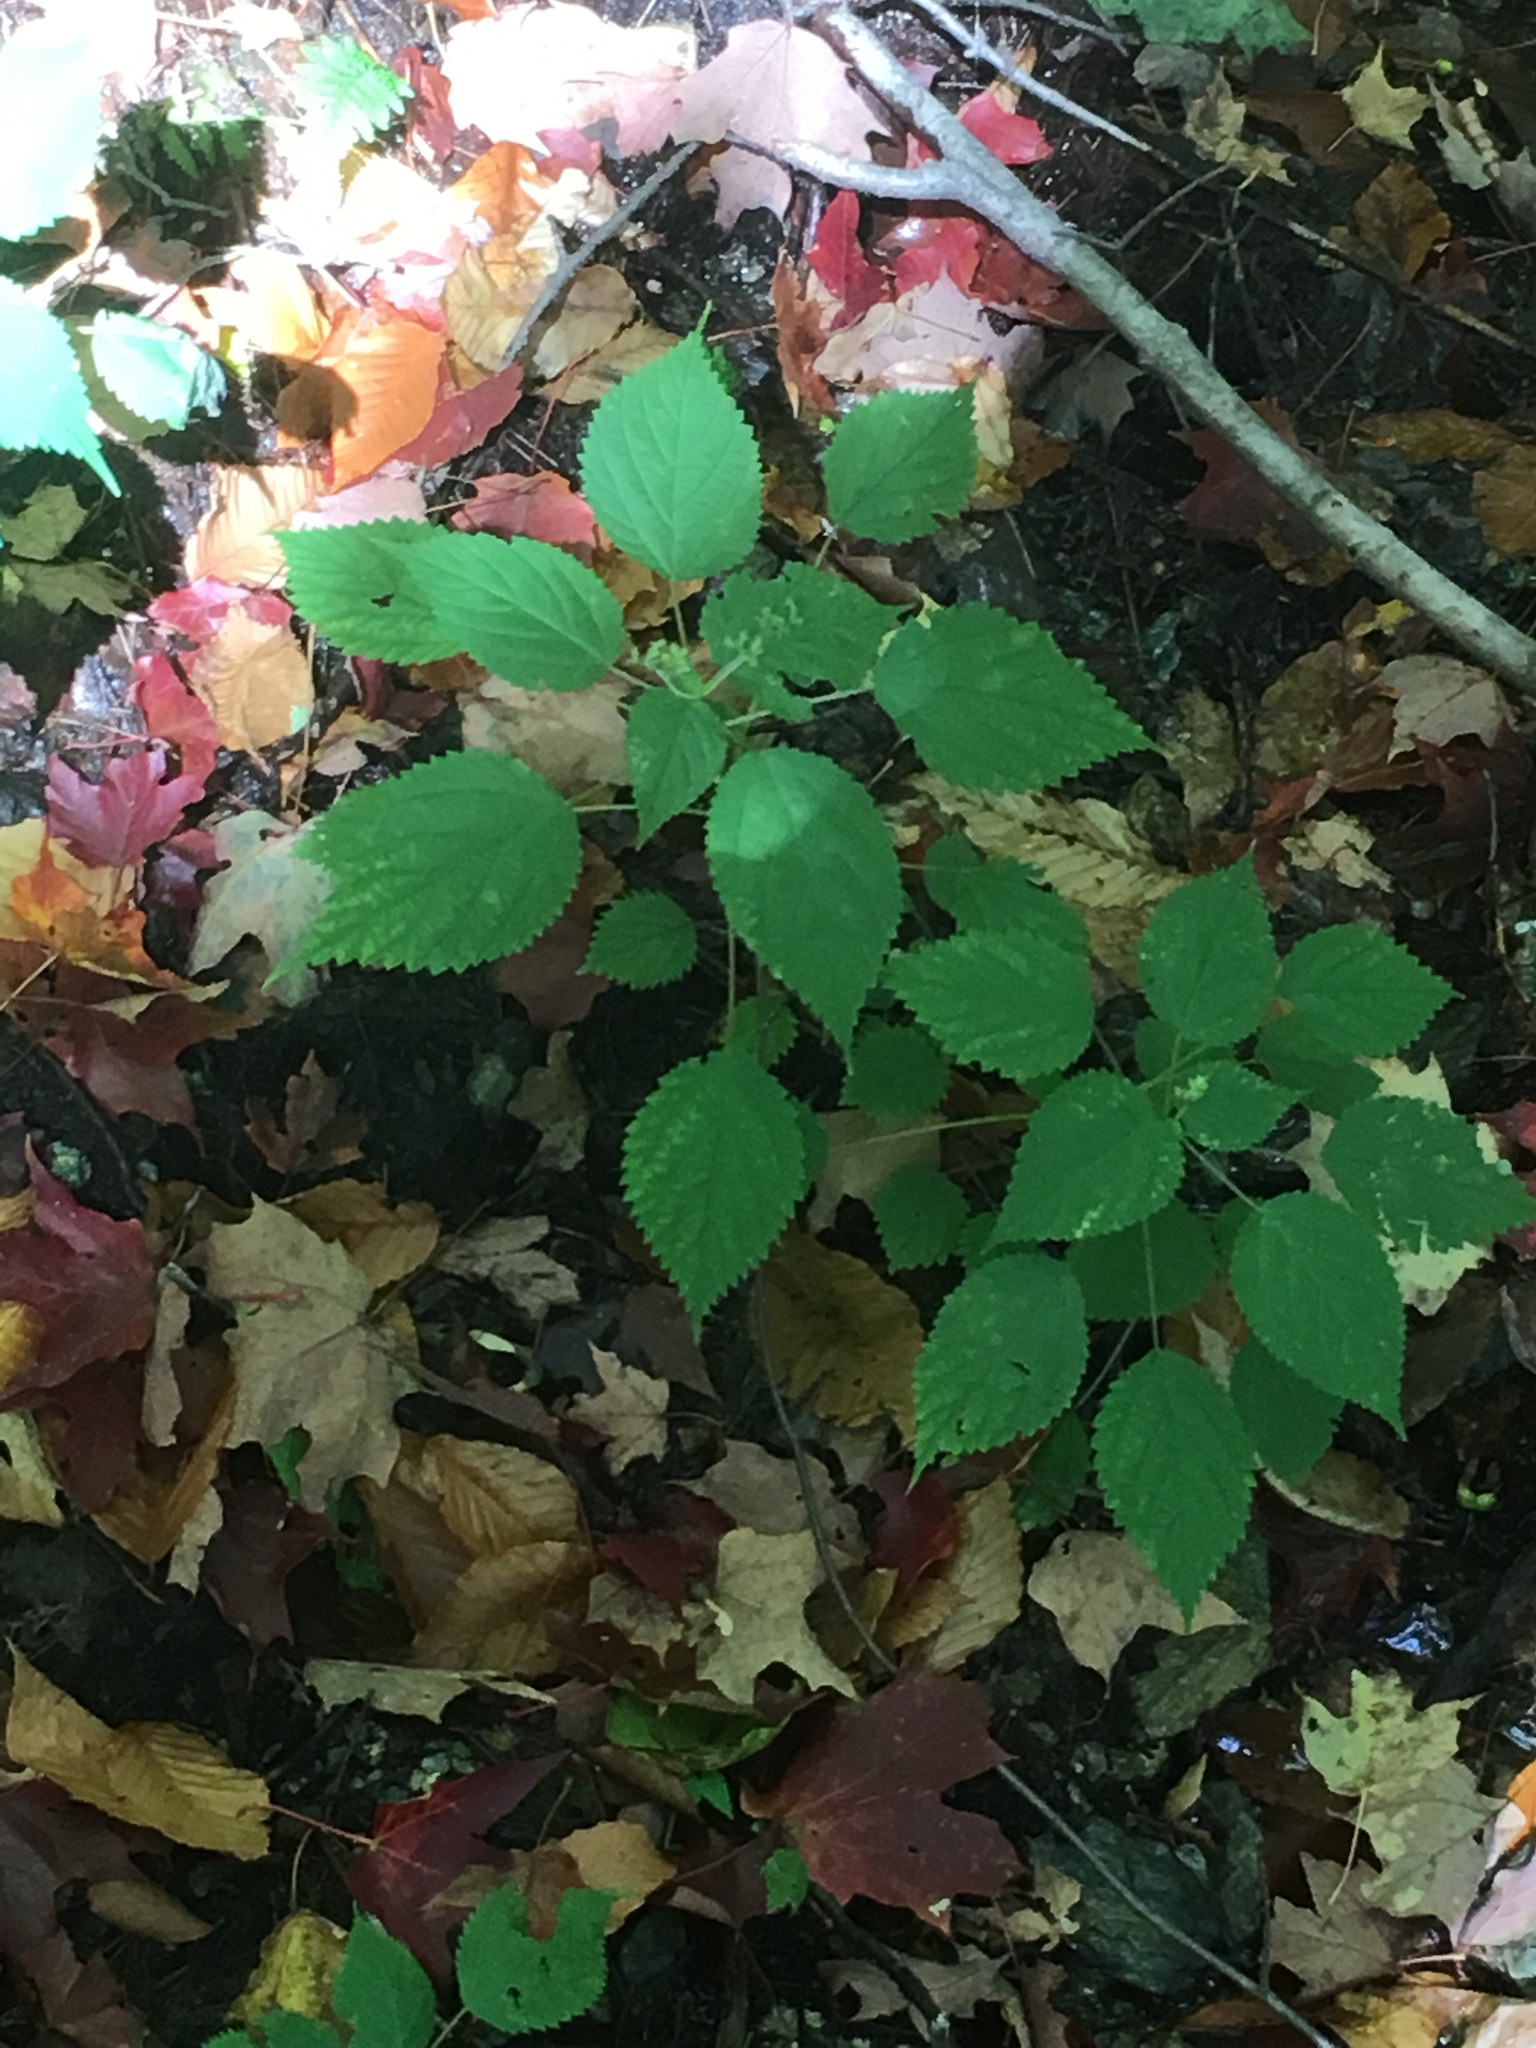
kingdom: Plantae
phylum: Tracheophyta
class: Magnoliopsida
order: Rosales
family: Urticaceae
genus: Laportea
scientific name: Laportea canadensis
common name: Canada nettle
